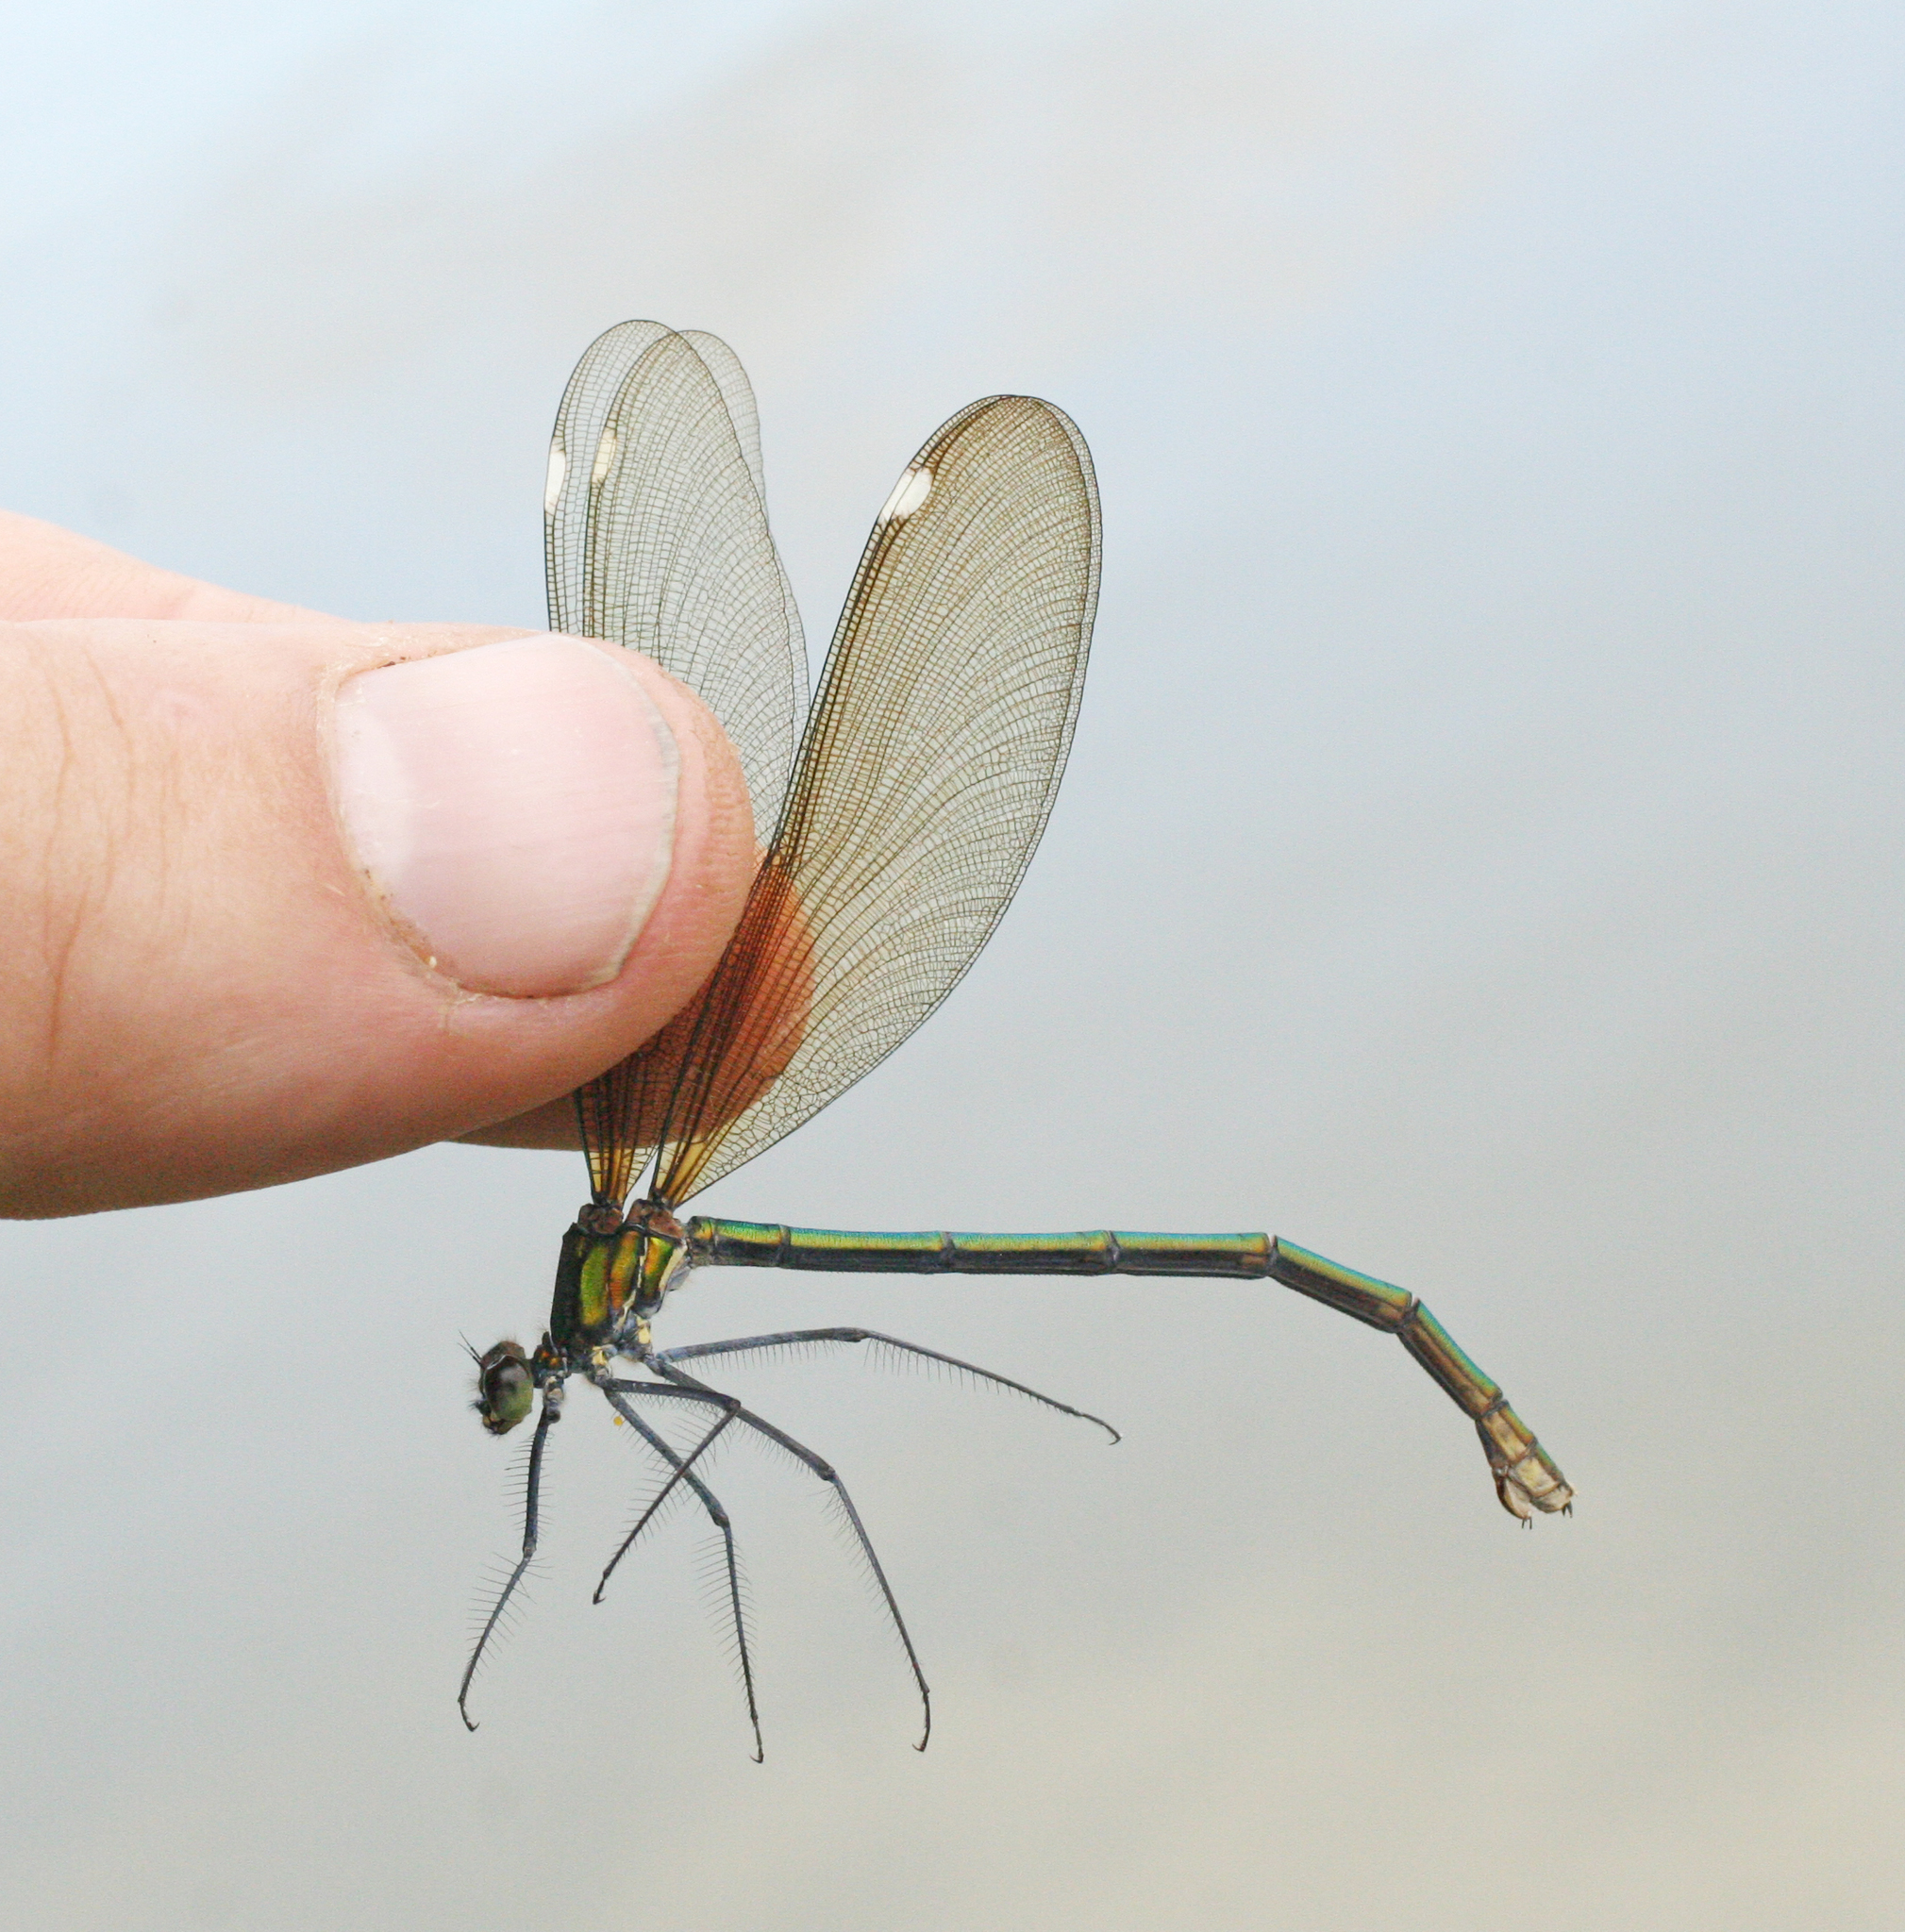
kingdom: Animalia
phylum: Arthropoda
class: Insecta
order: Odonata
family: Calopterygidae
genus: Calopteryx
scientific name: Calopteryx japonica
